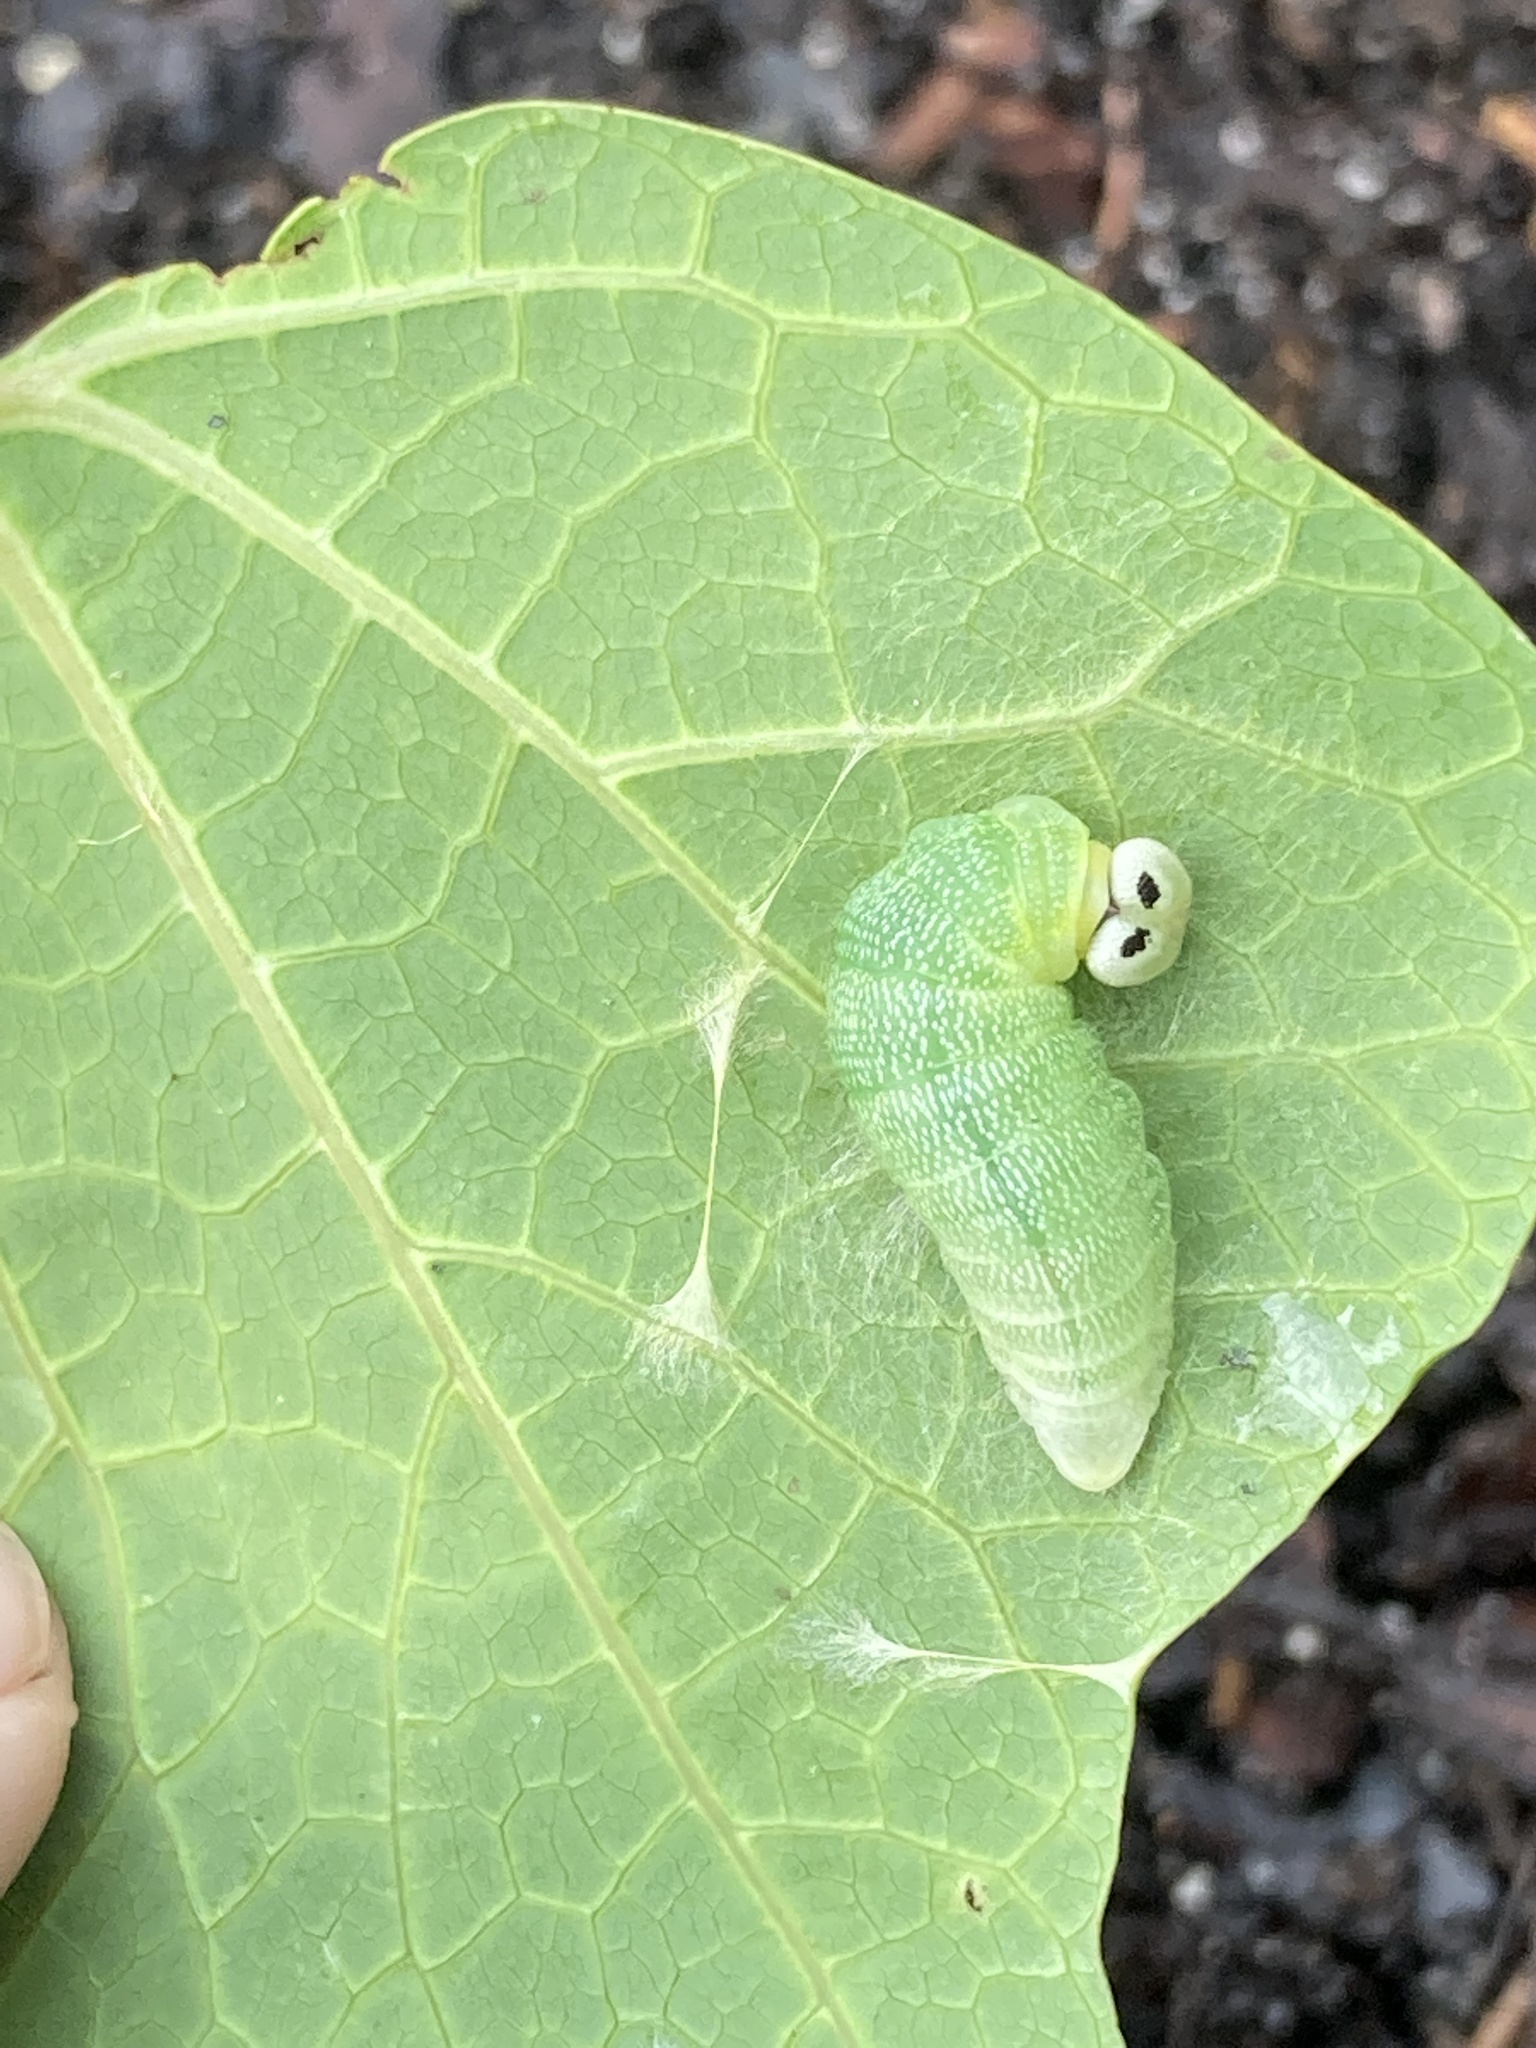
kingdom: Animalia
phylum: Arthropoda
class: Insecta
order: Lepidoptera
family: Hesperiidae
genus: Polygonus
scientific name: Polygonus leo
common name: Hammoch skipper
